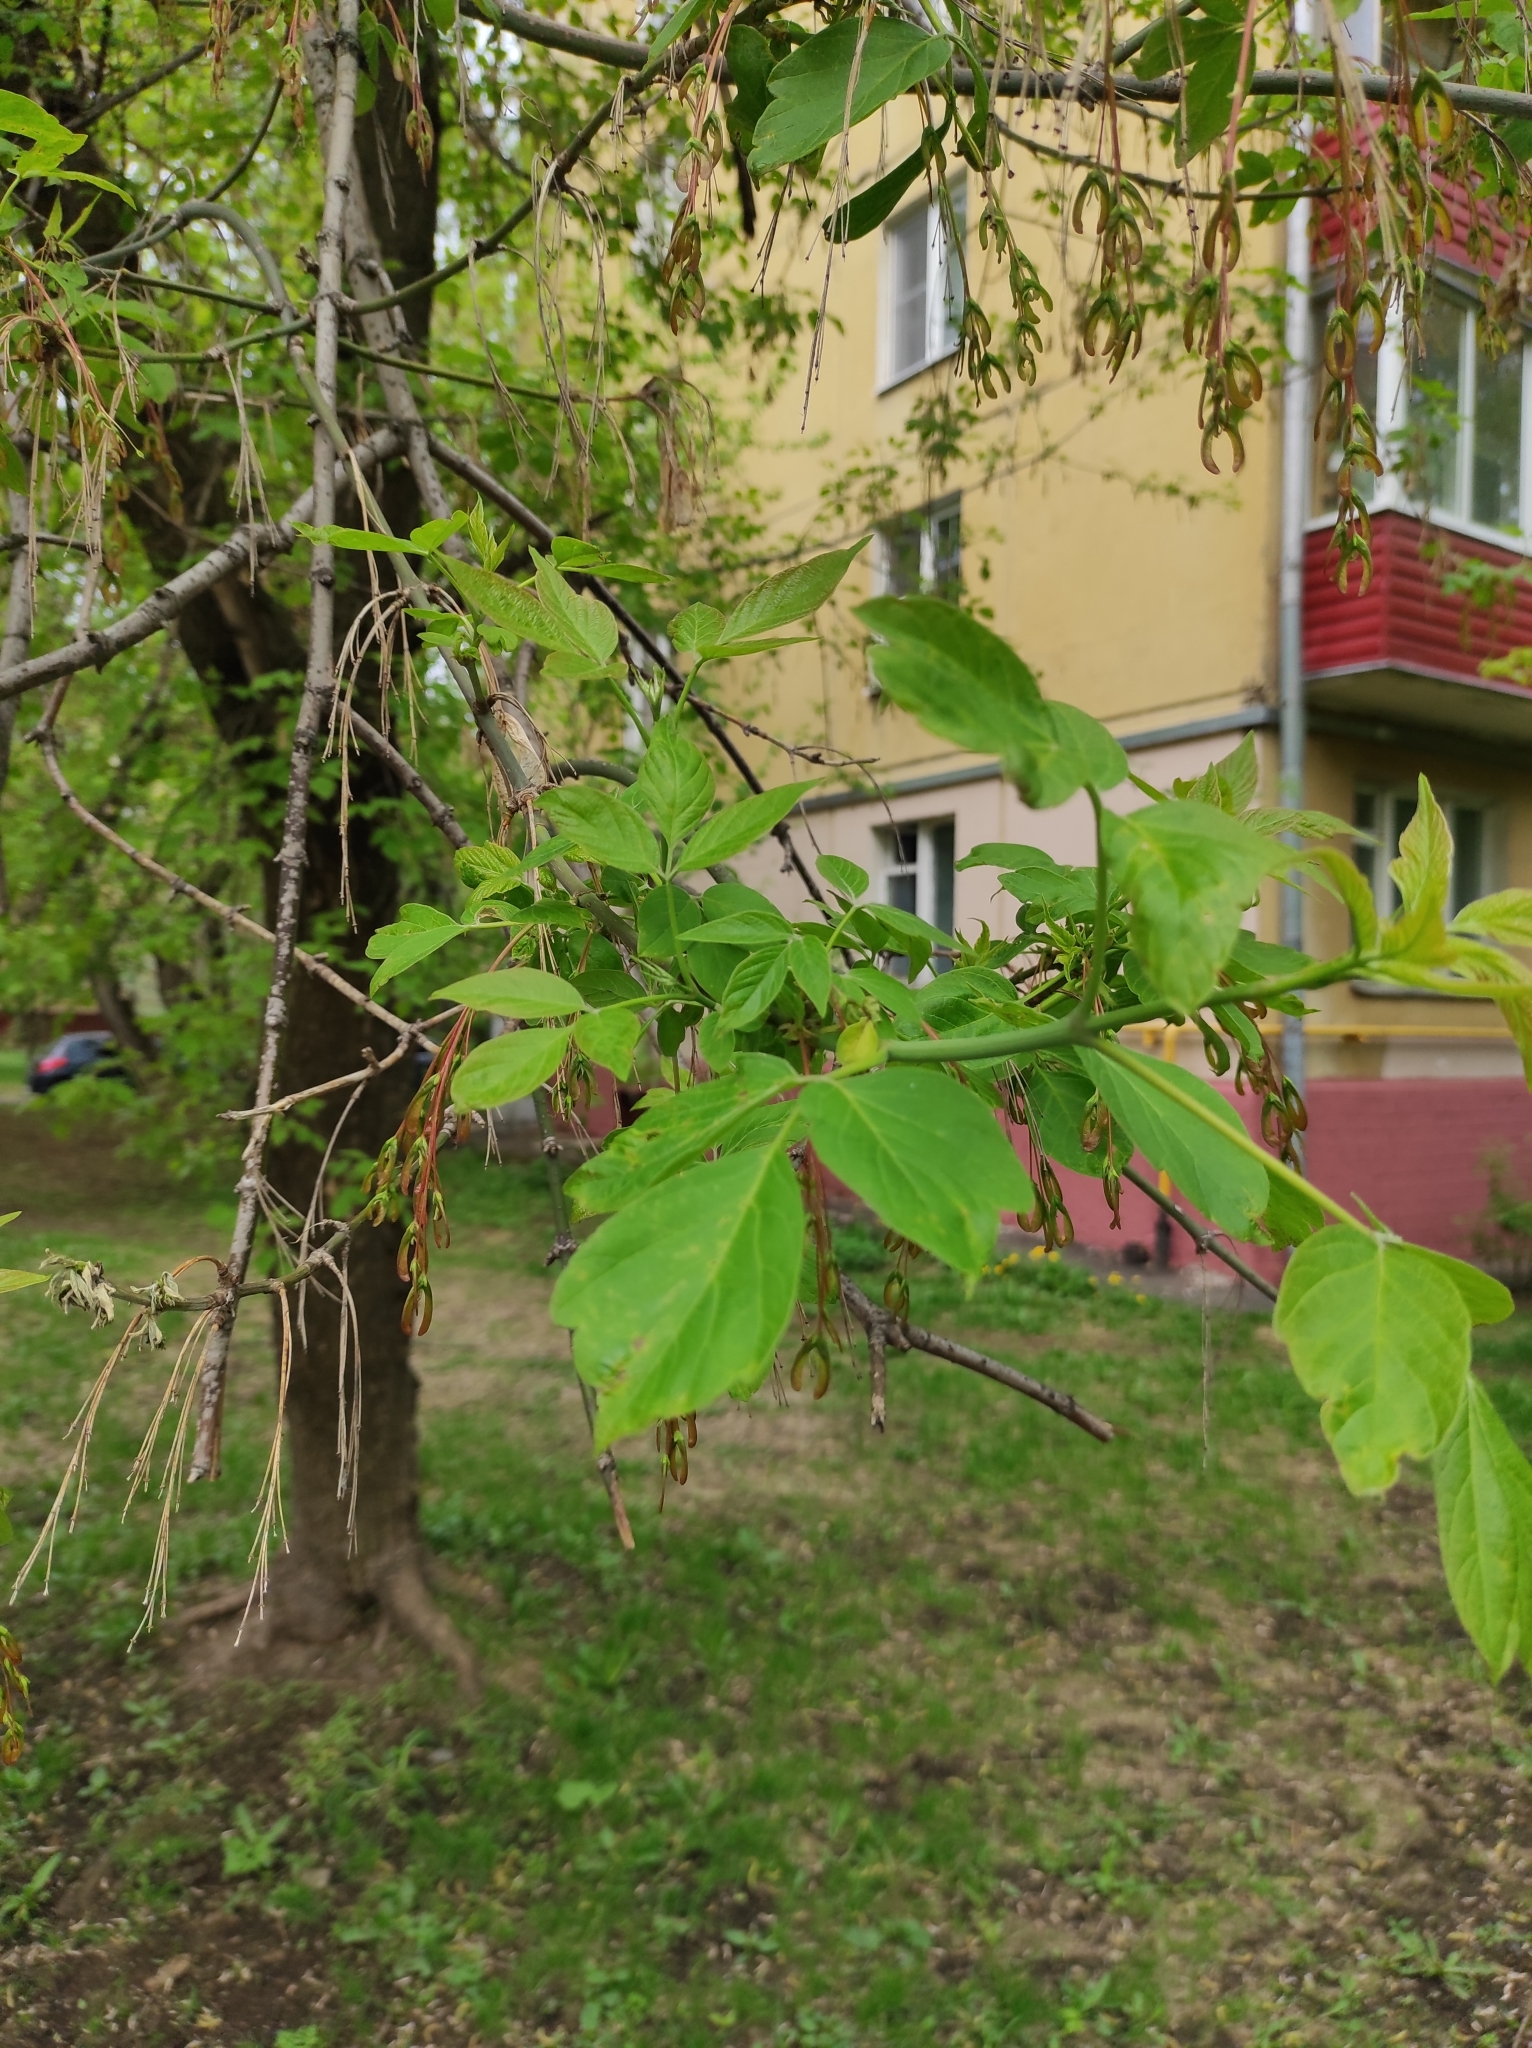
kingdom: Plantae
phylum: Tracheophyta
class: Magnoliopsida
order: Sapindales
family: Sapindaceae
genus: Acer
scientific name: Acer negundo
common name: Ashleaf maple
